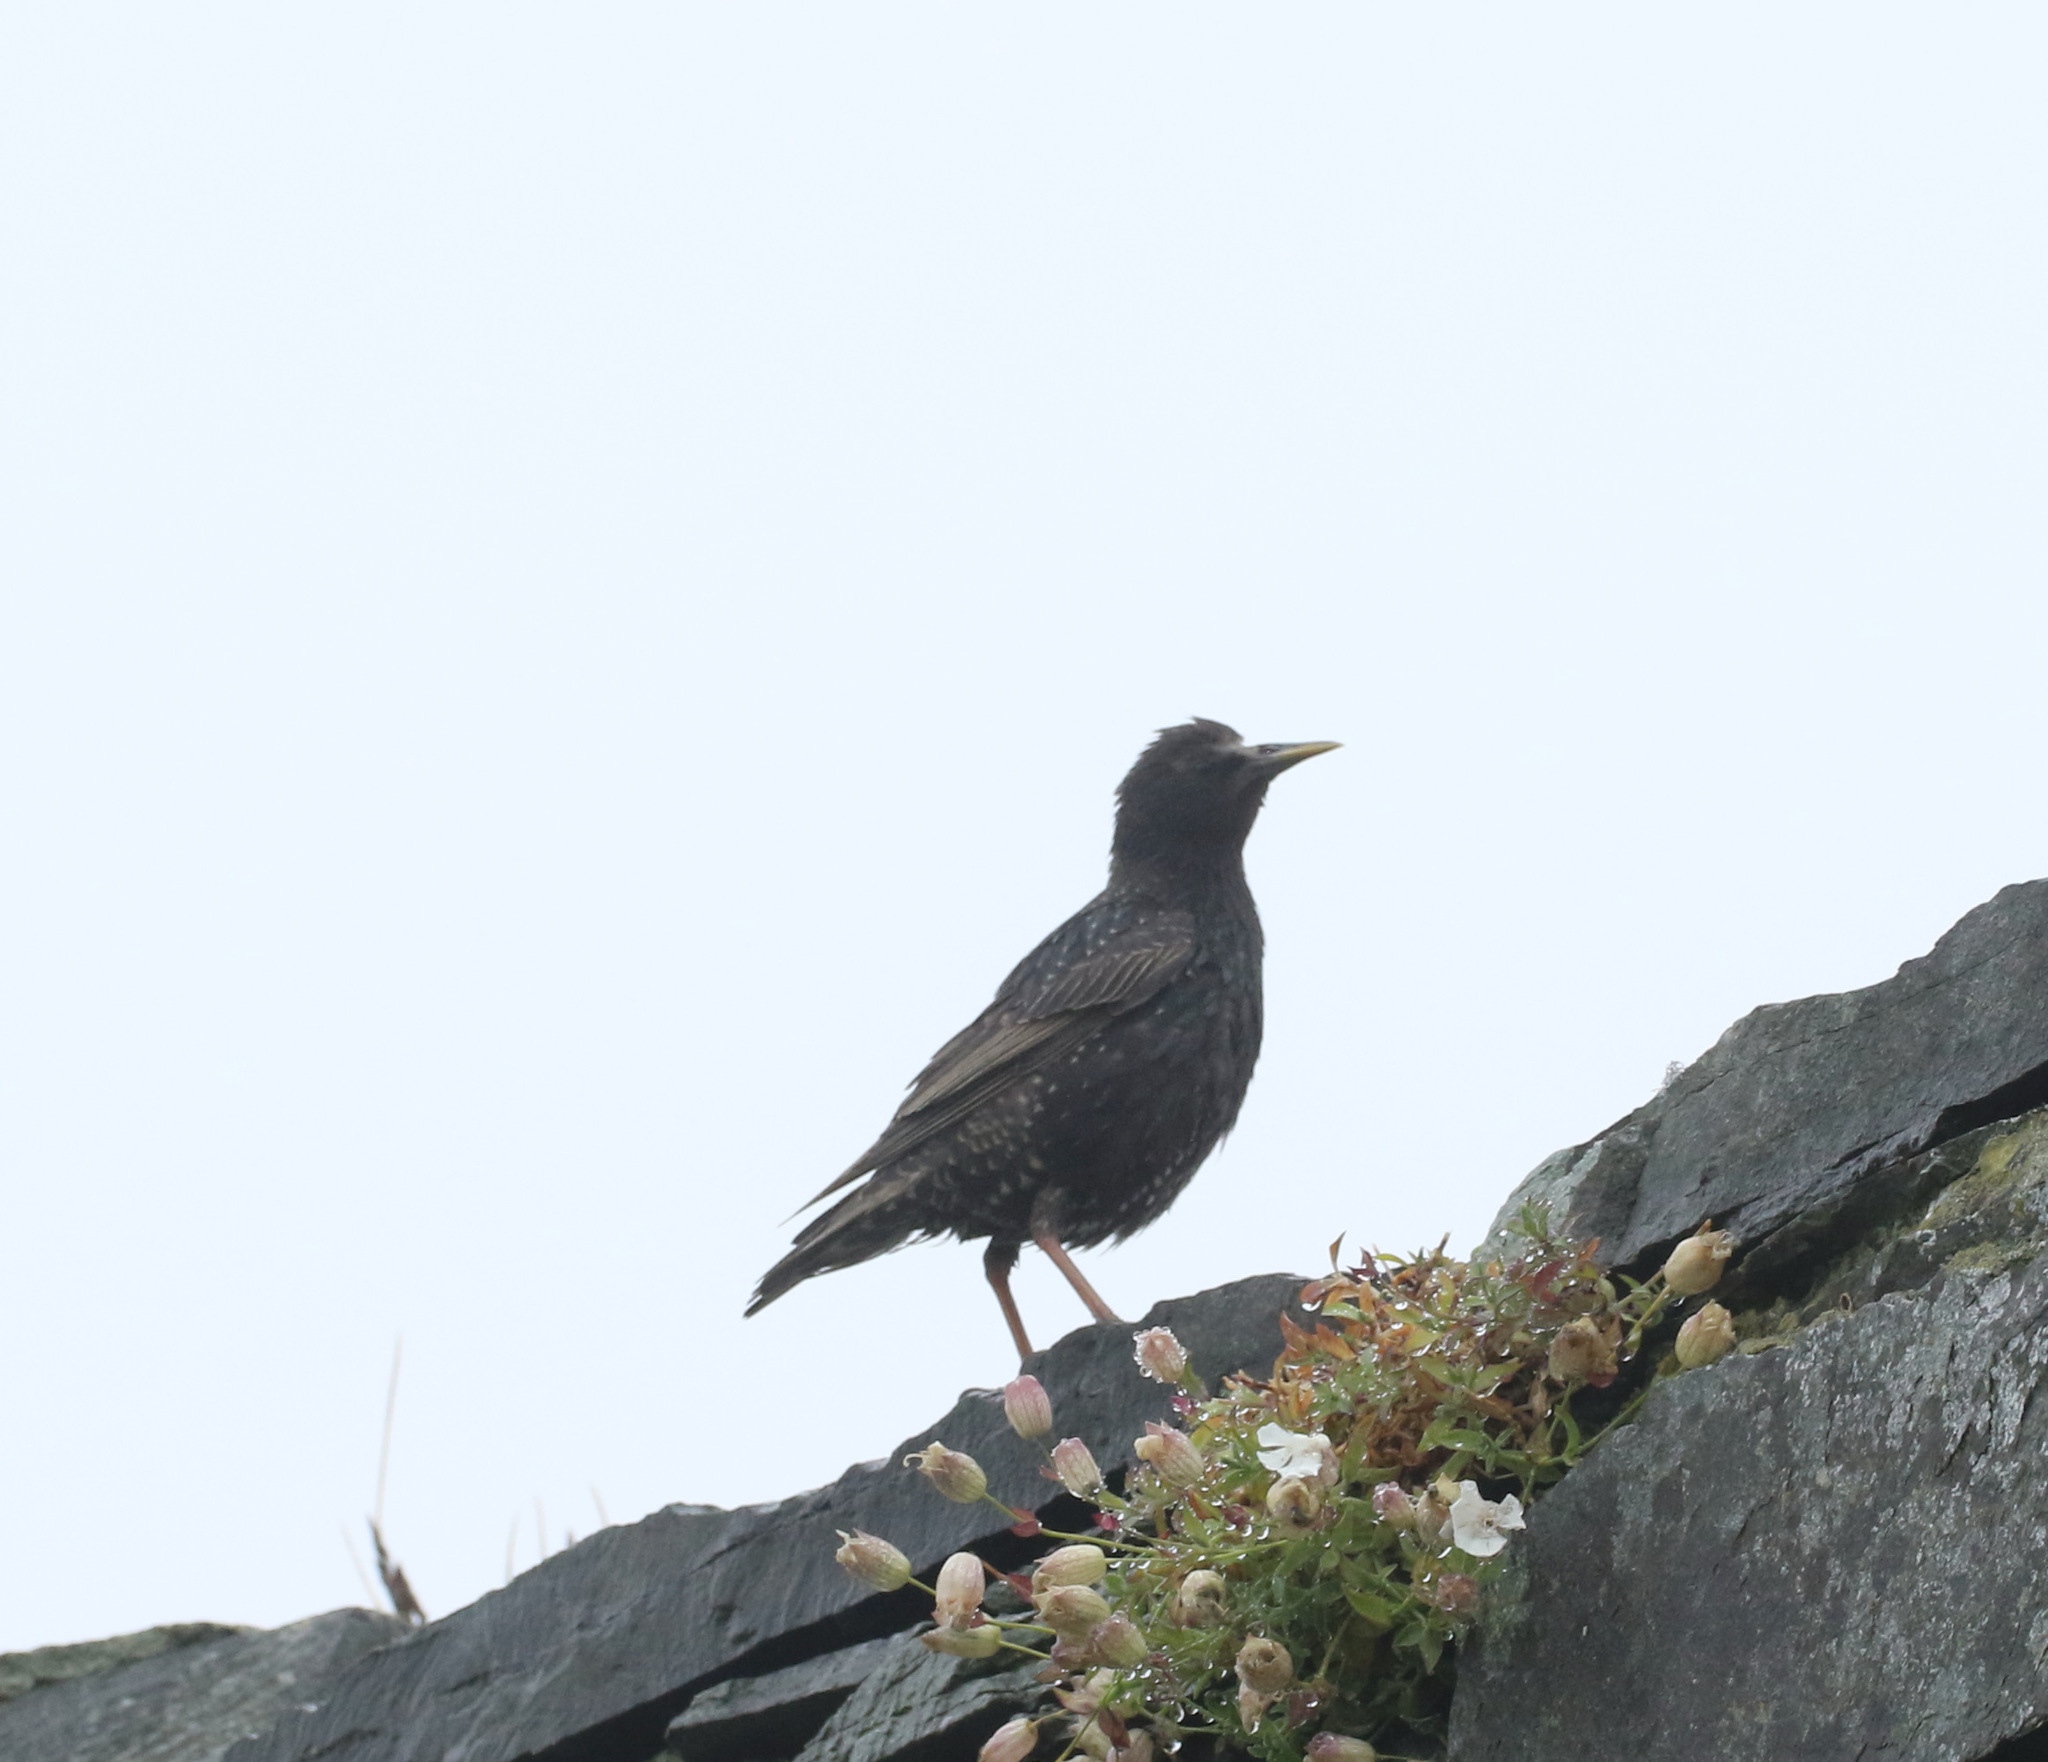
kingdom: Animalia
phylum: Chordata
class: Aves
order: Passeriformes
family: Sturnidae
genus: Sturnus
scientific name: Sturnus vulgaris
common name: Common starling
